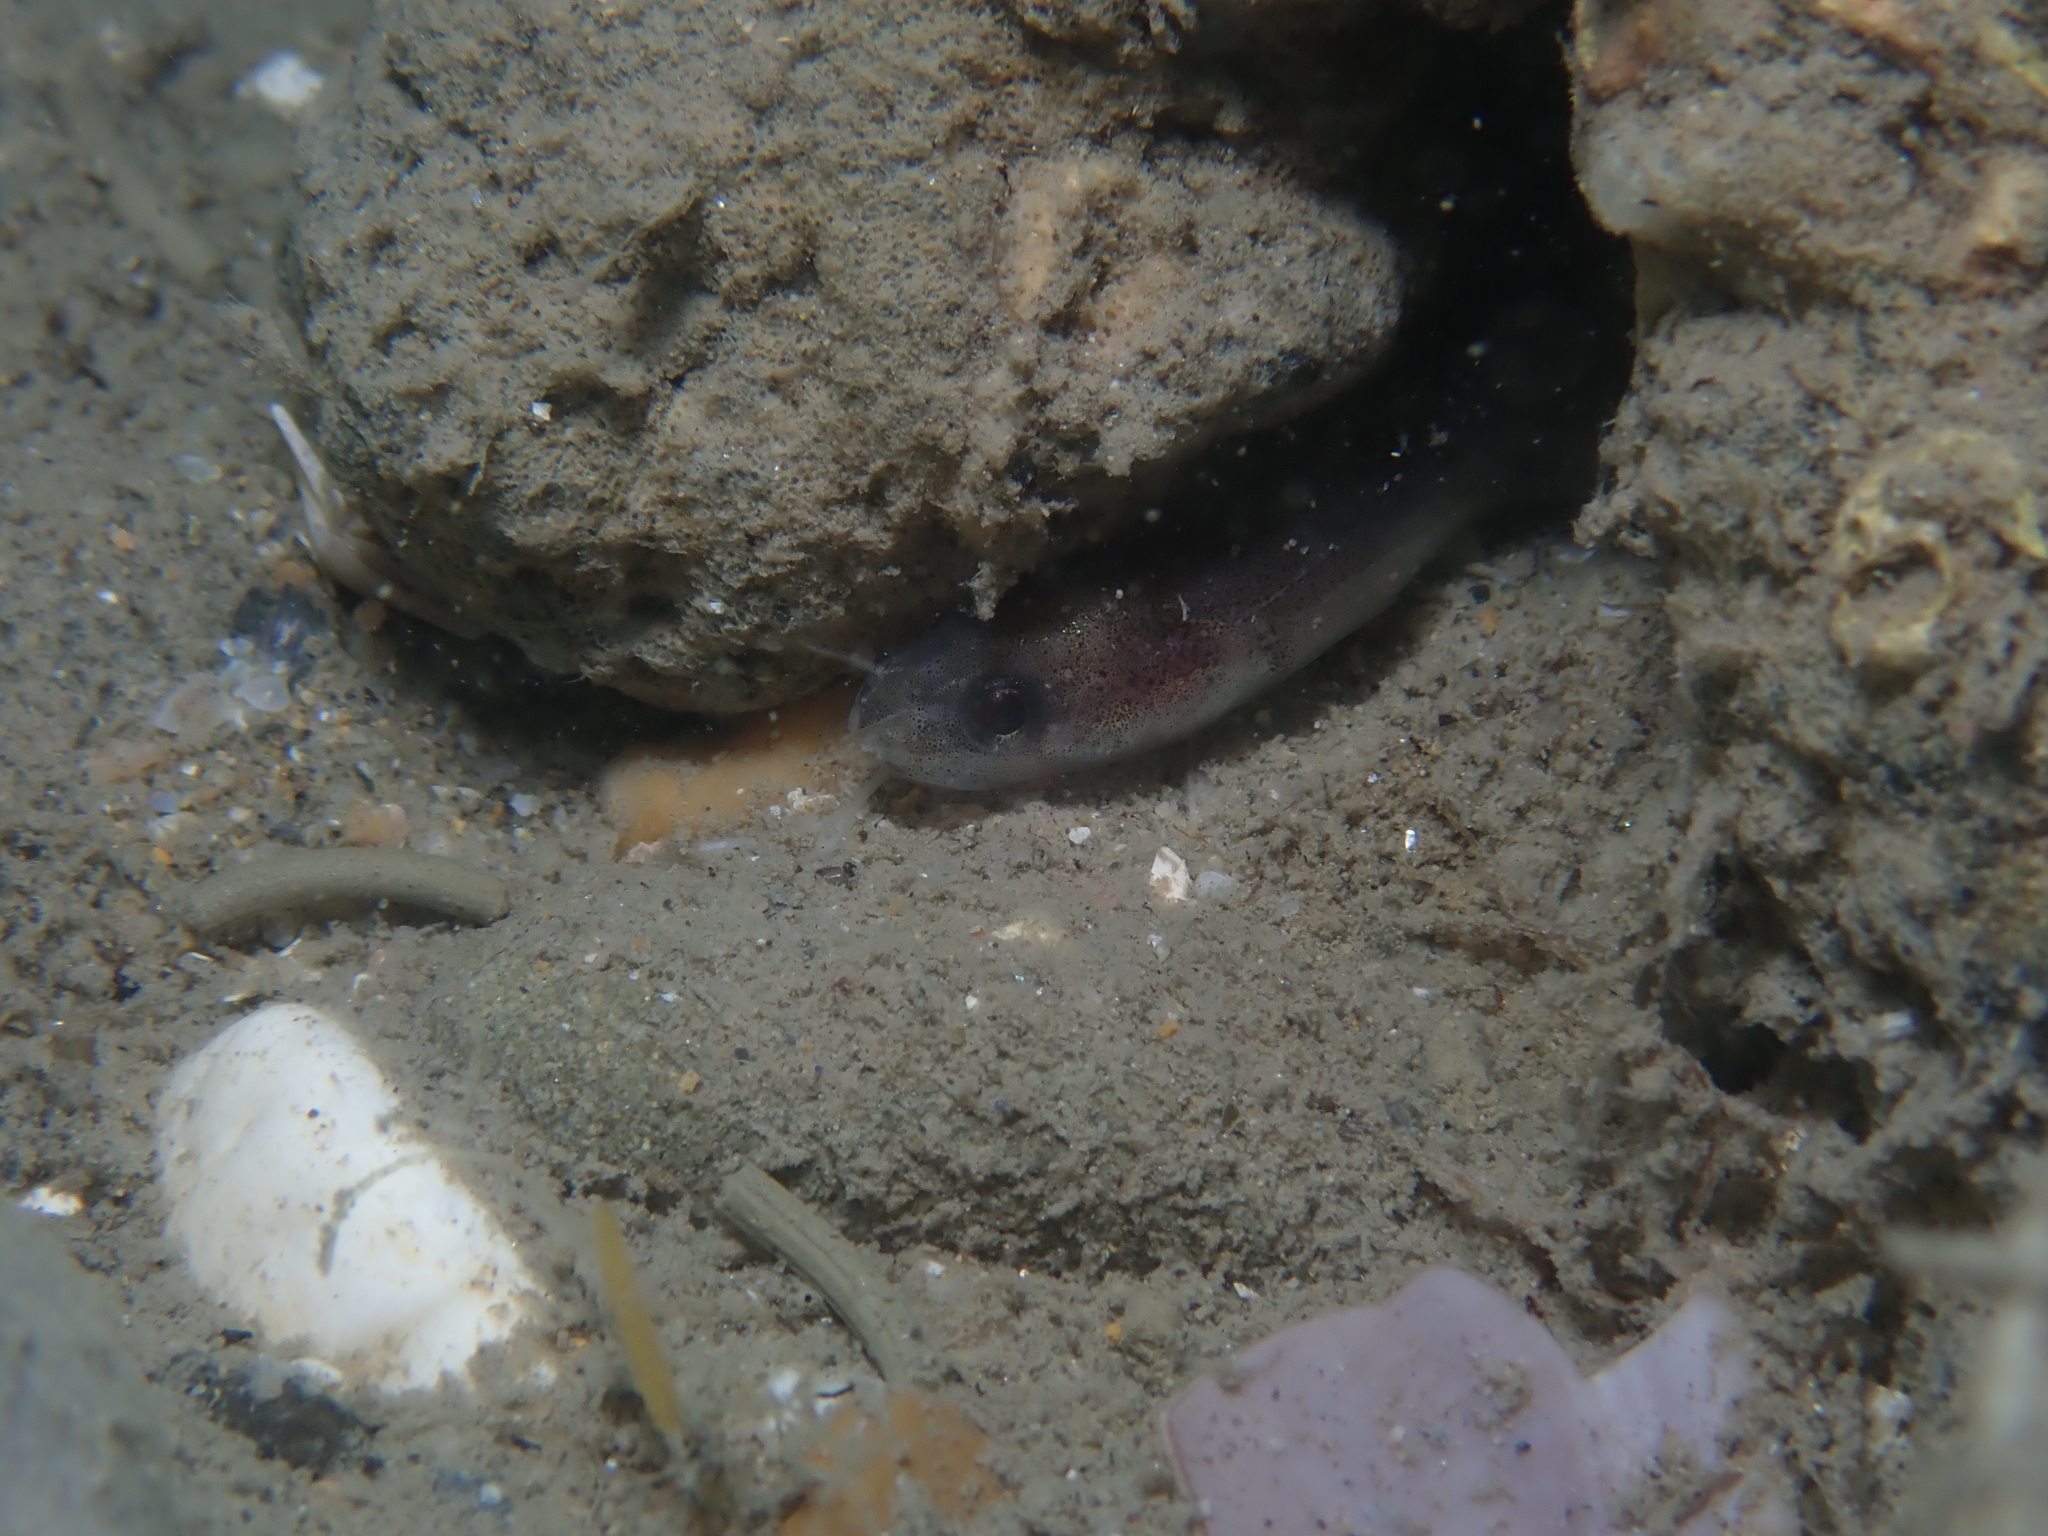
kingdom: Animalia
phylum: Chordata
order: Gadiformes
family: Lotidae
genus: Gaidropsarus
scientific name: Gaidropsarus mediterraneus
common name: Shore rockling
